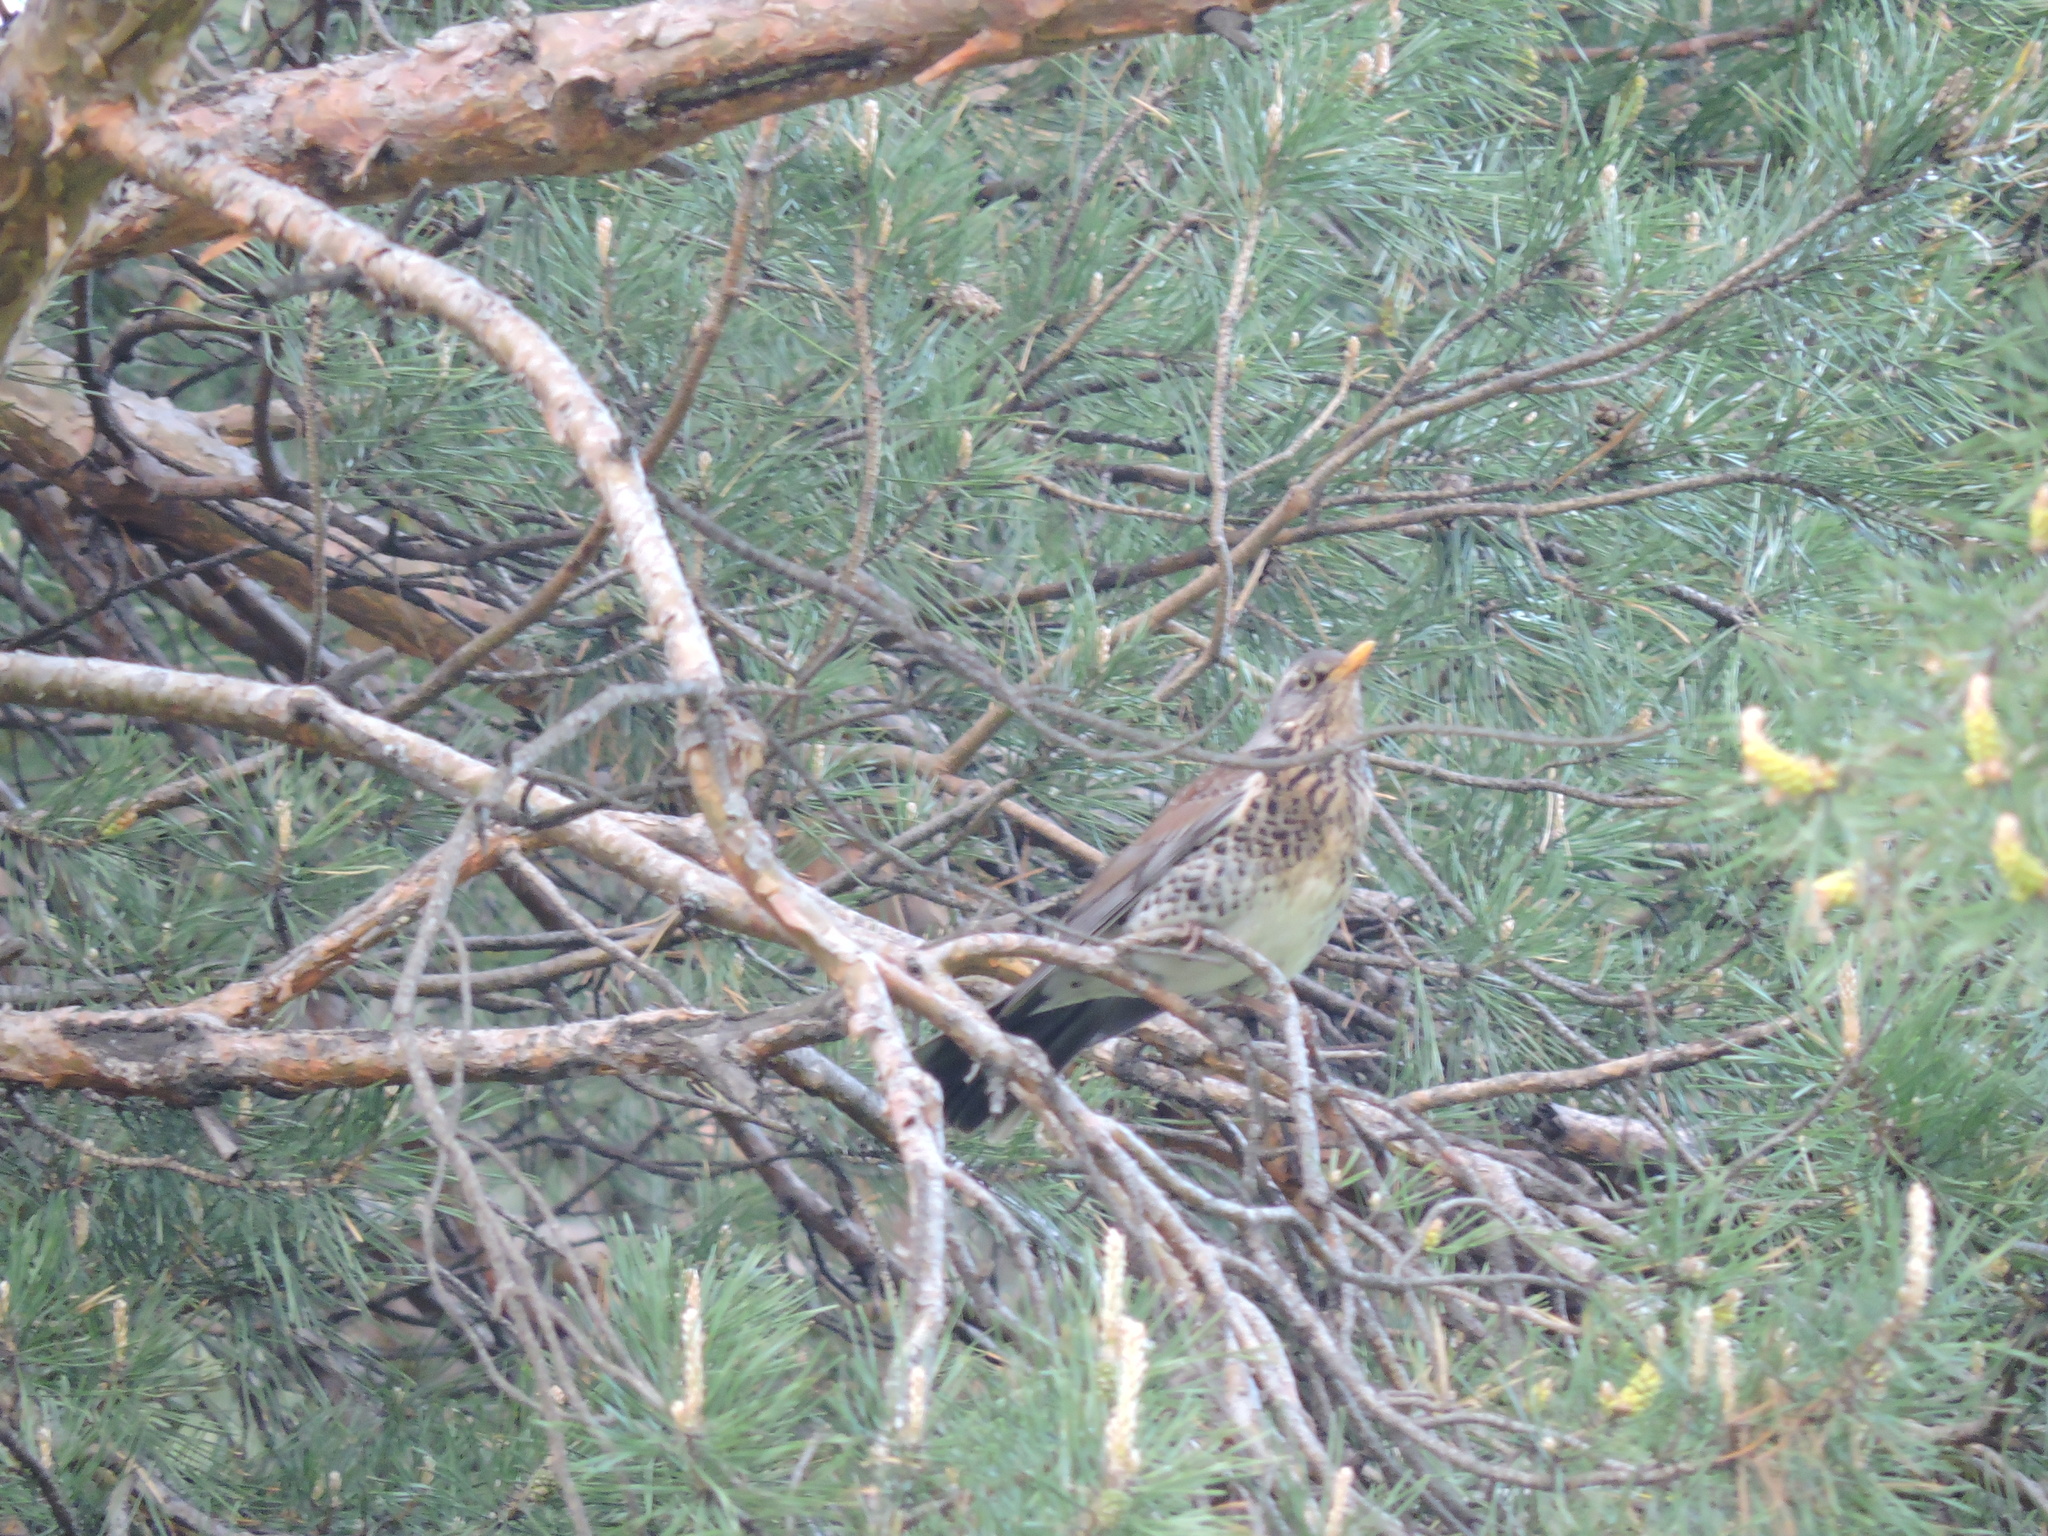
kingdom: Animalia
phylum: Chordata
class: Aves
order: Passeriformes
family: Turdidae
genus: Turdus
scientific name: Turdus pilaris
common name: Fieldfare
